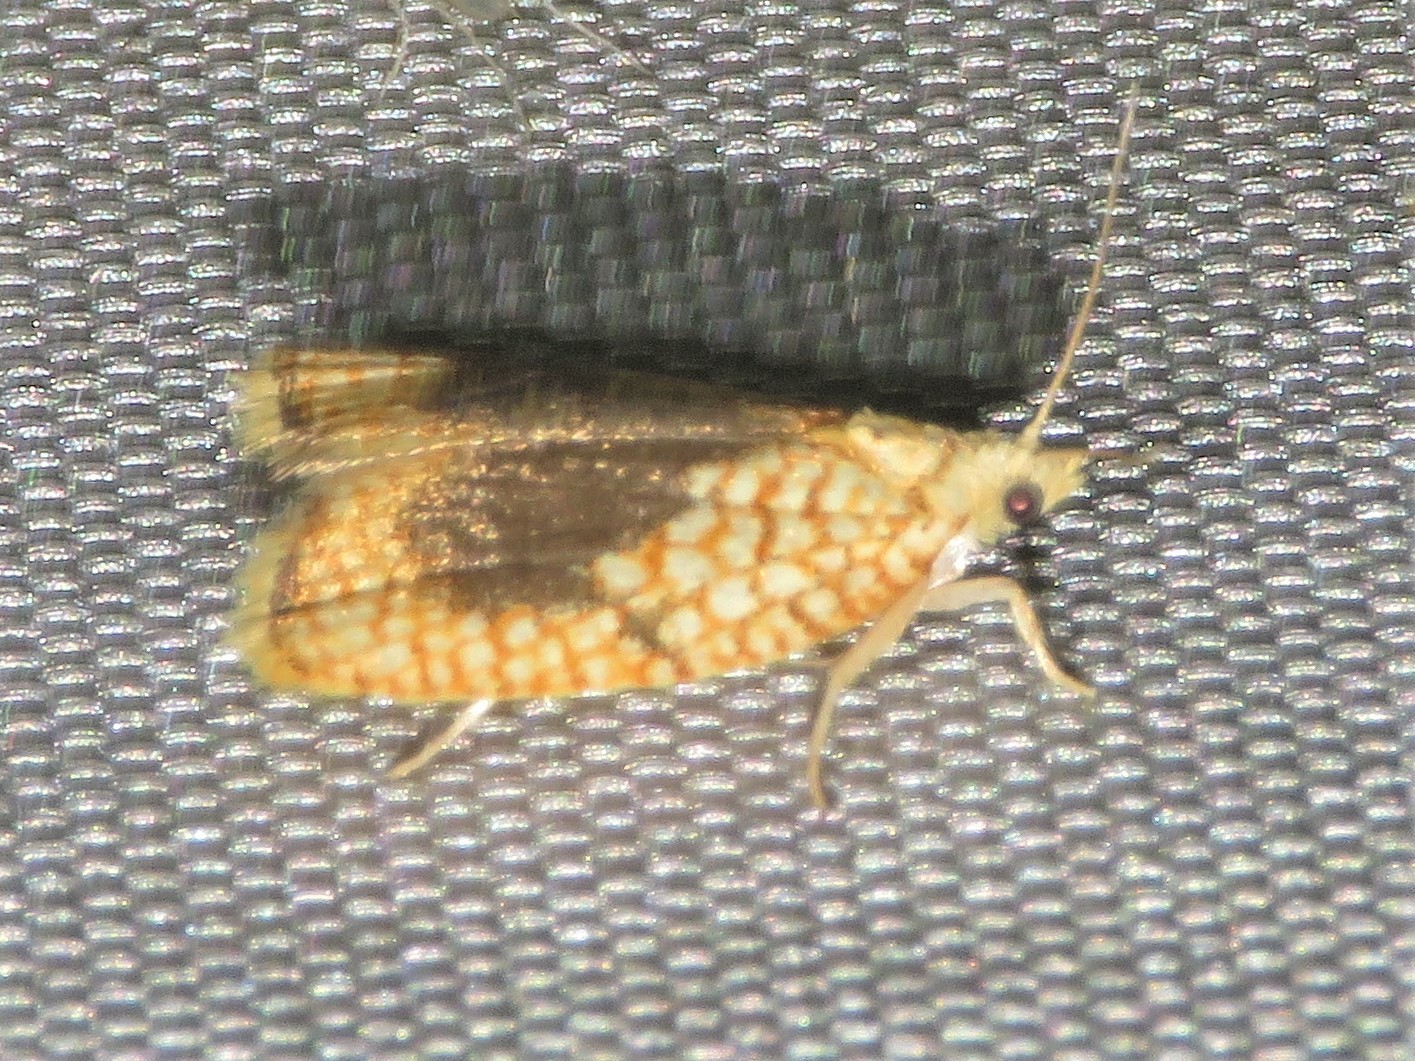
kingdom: Animalia
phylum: Arthropoda
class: Insecta
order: Lepidoptera
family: Tortricidae
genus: Acleris
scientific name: Acleris forsskaleana
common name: Maple button
